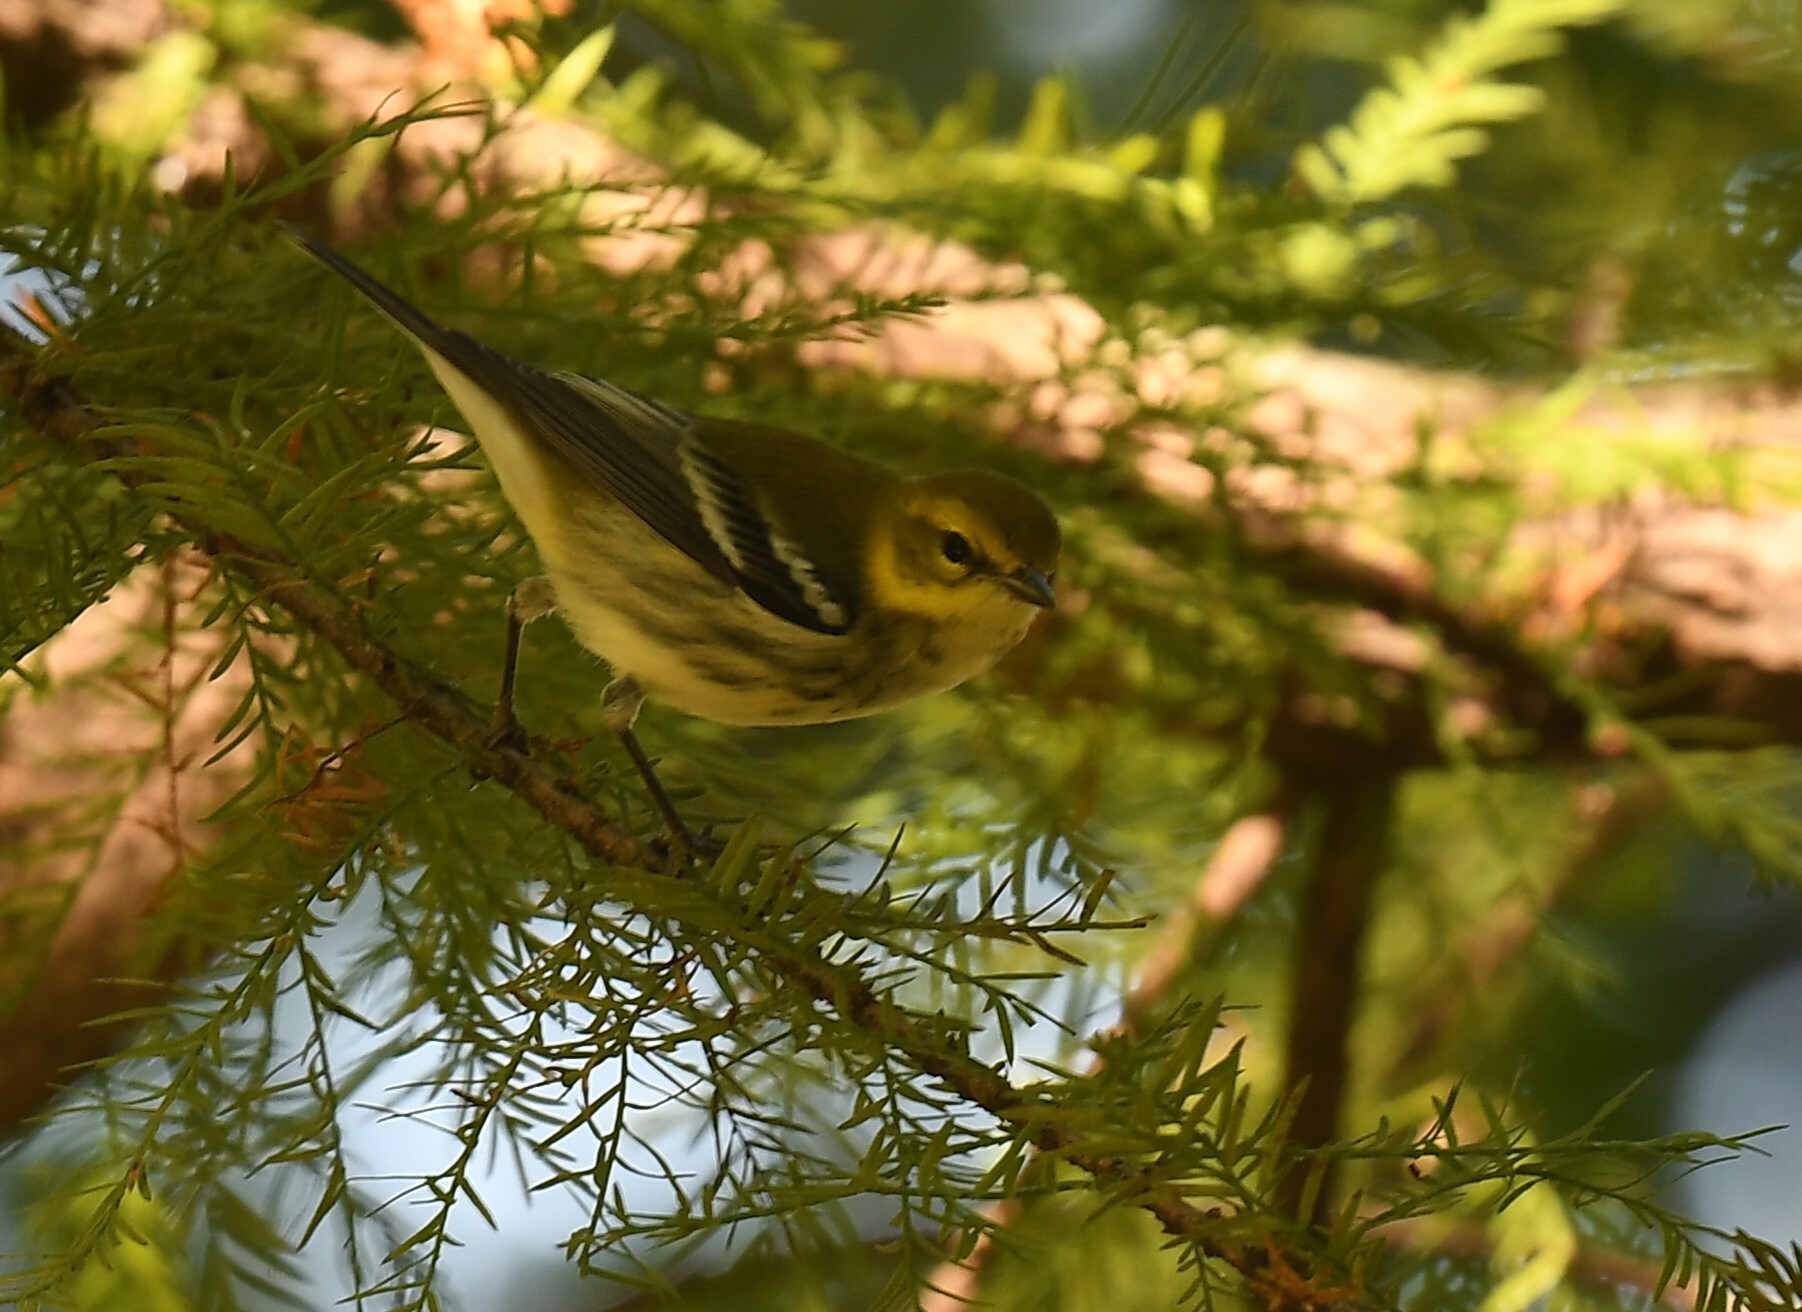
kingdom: Animalia
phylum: Chordata
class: Aves
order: Passeriformes
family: Parulidae
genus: Setophaga
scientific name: Setophaga virens
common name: Black-throated green warbler
